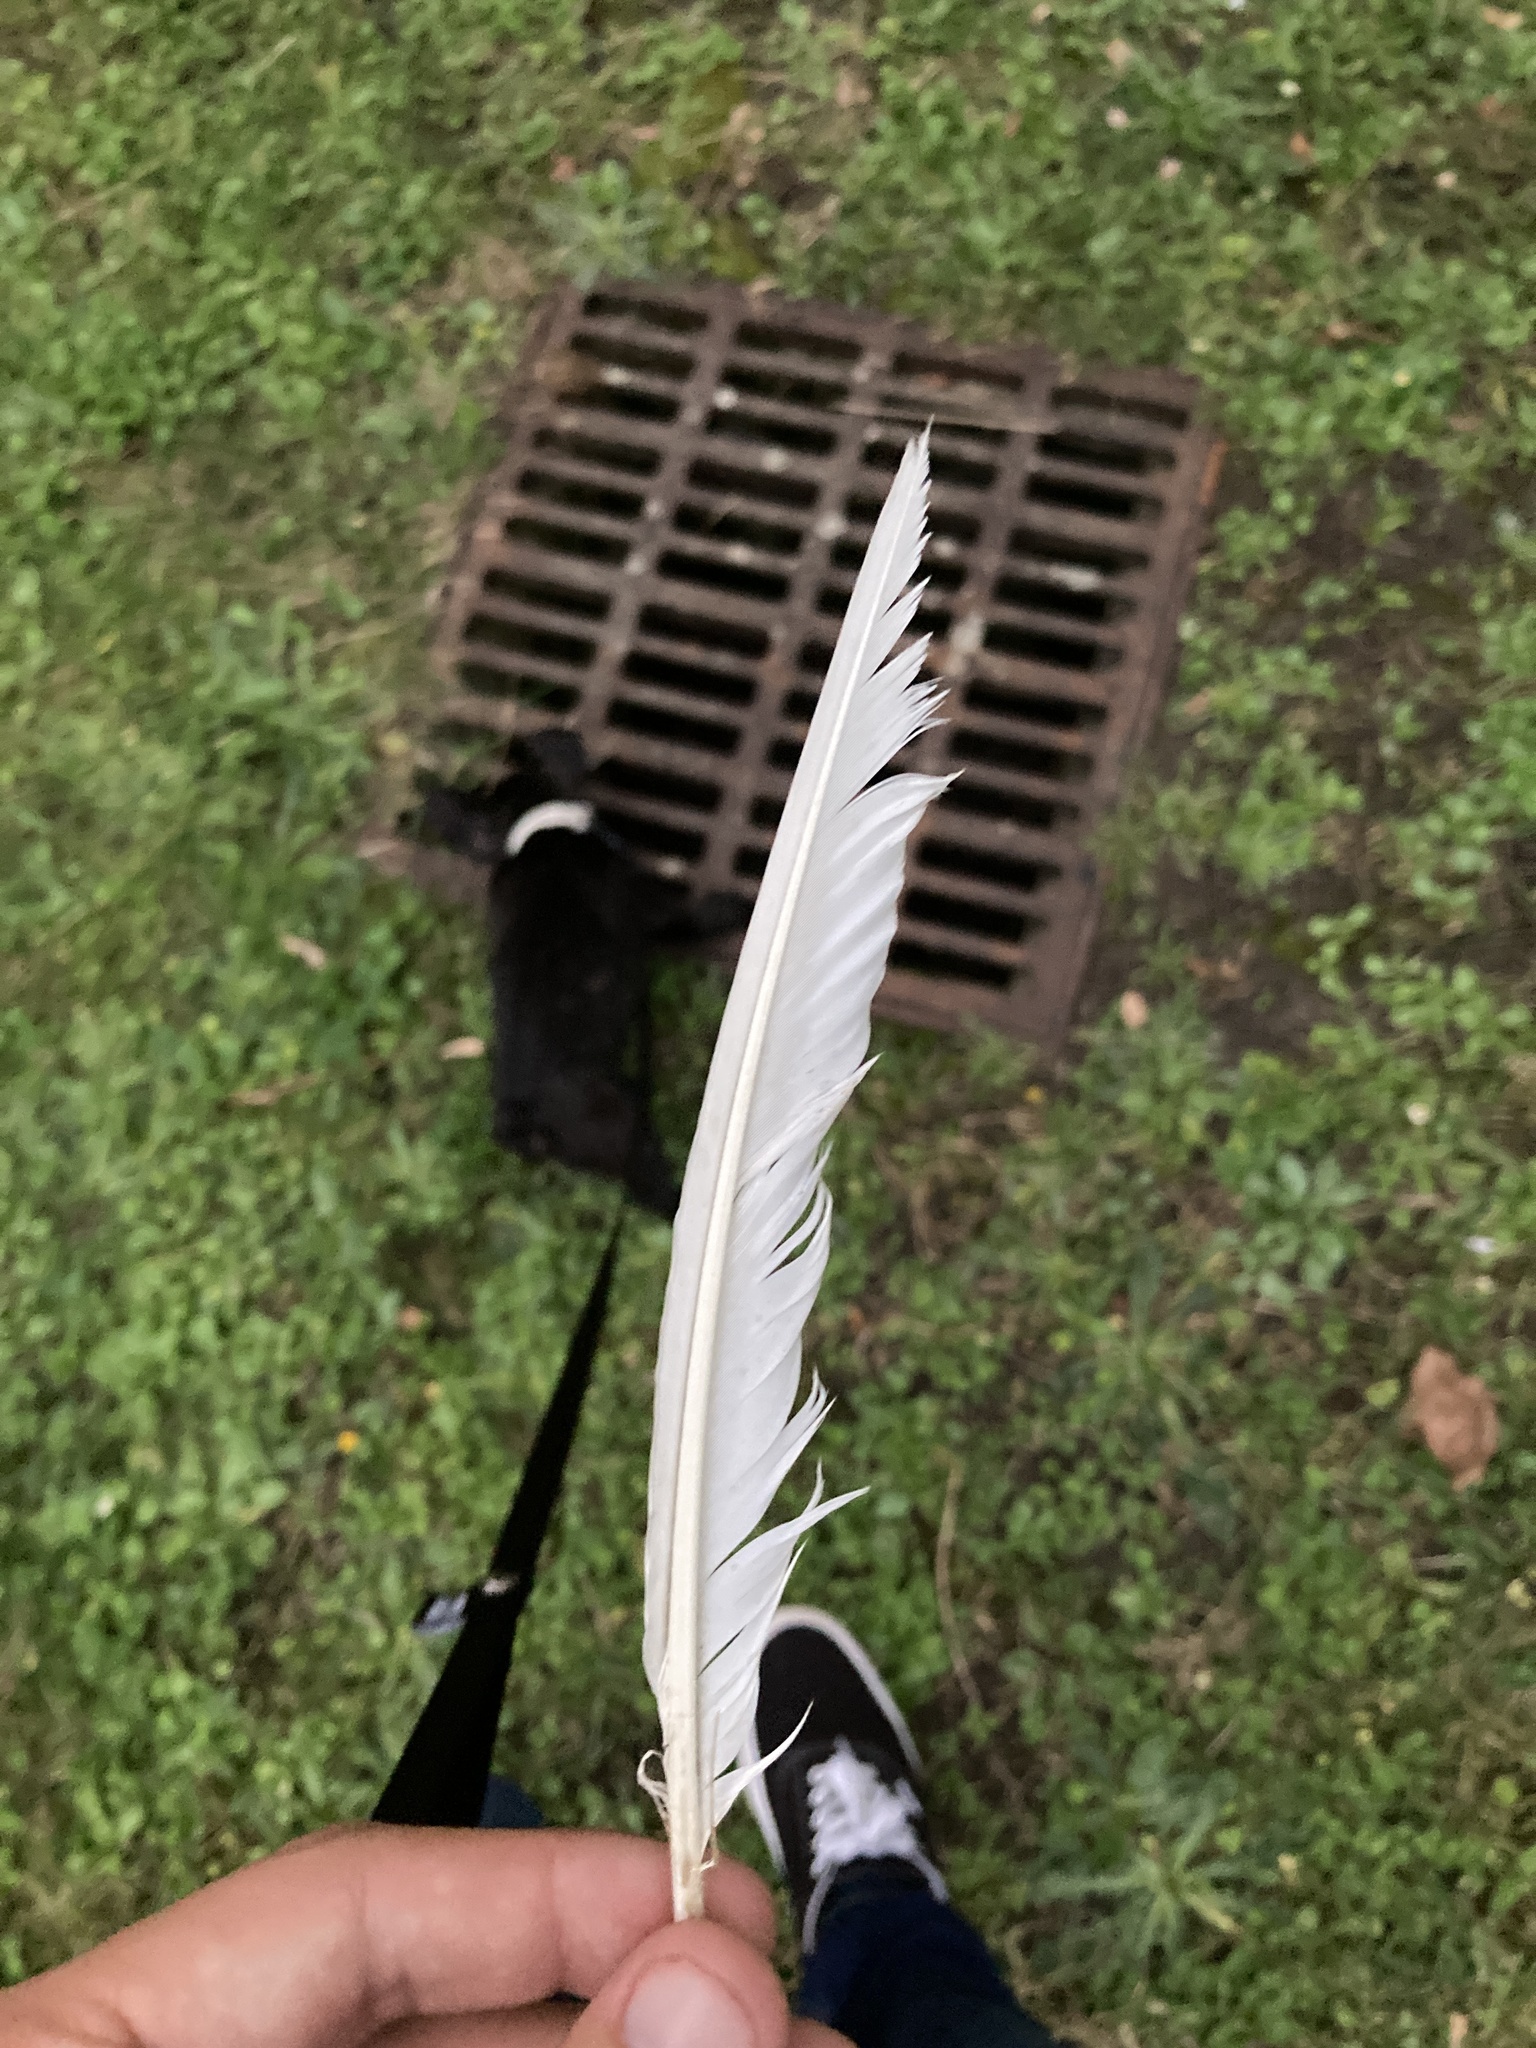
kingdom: Animalia
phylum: Chordata
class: Aves
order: Columbiformes
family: Columbidae
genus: Columba
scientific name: Columba livia
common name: Rock pigeon
